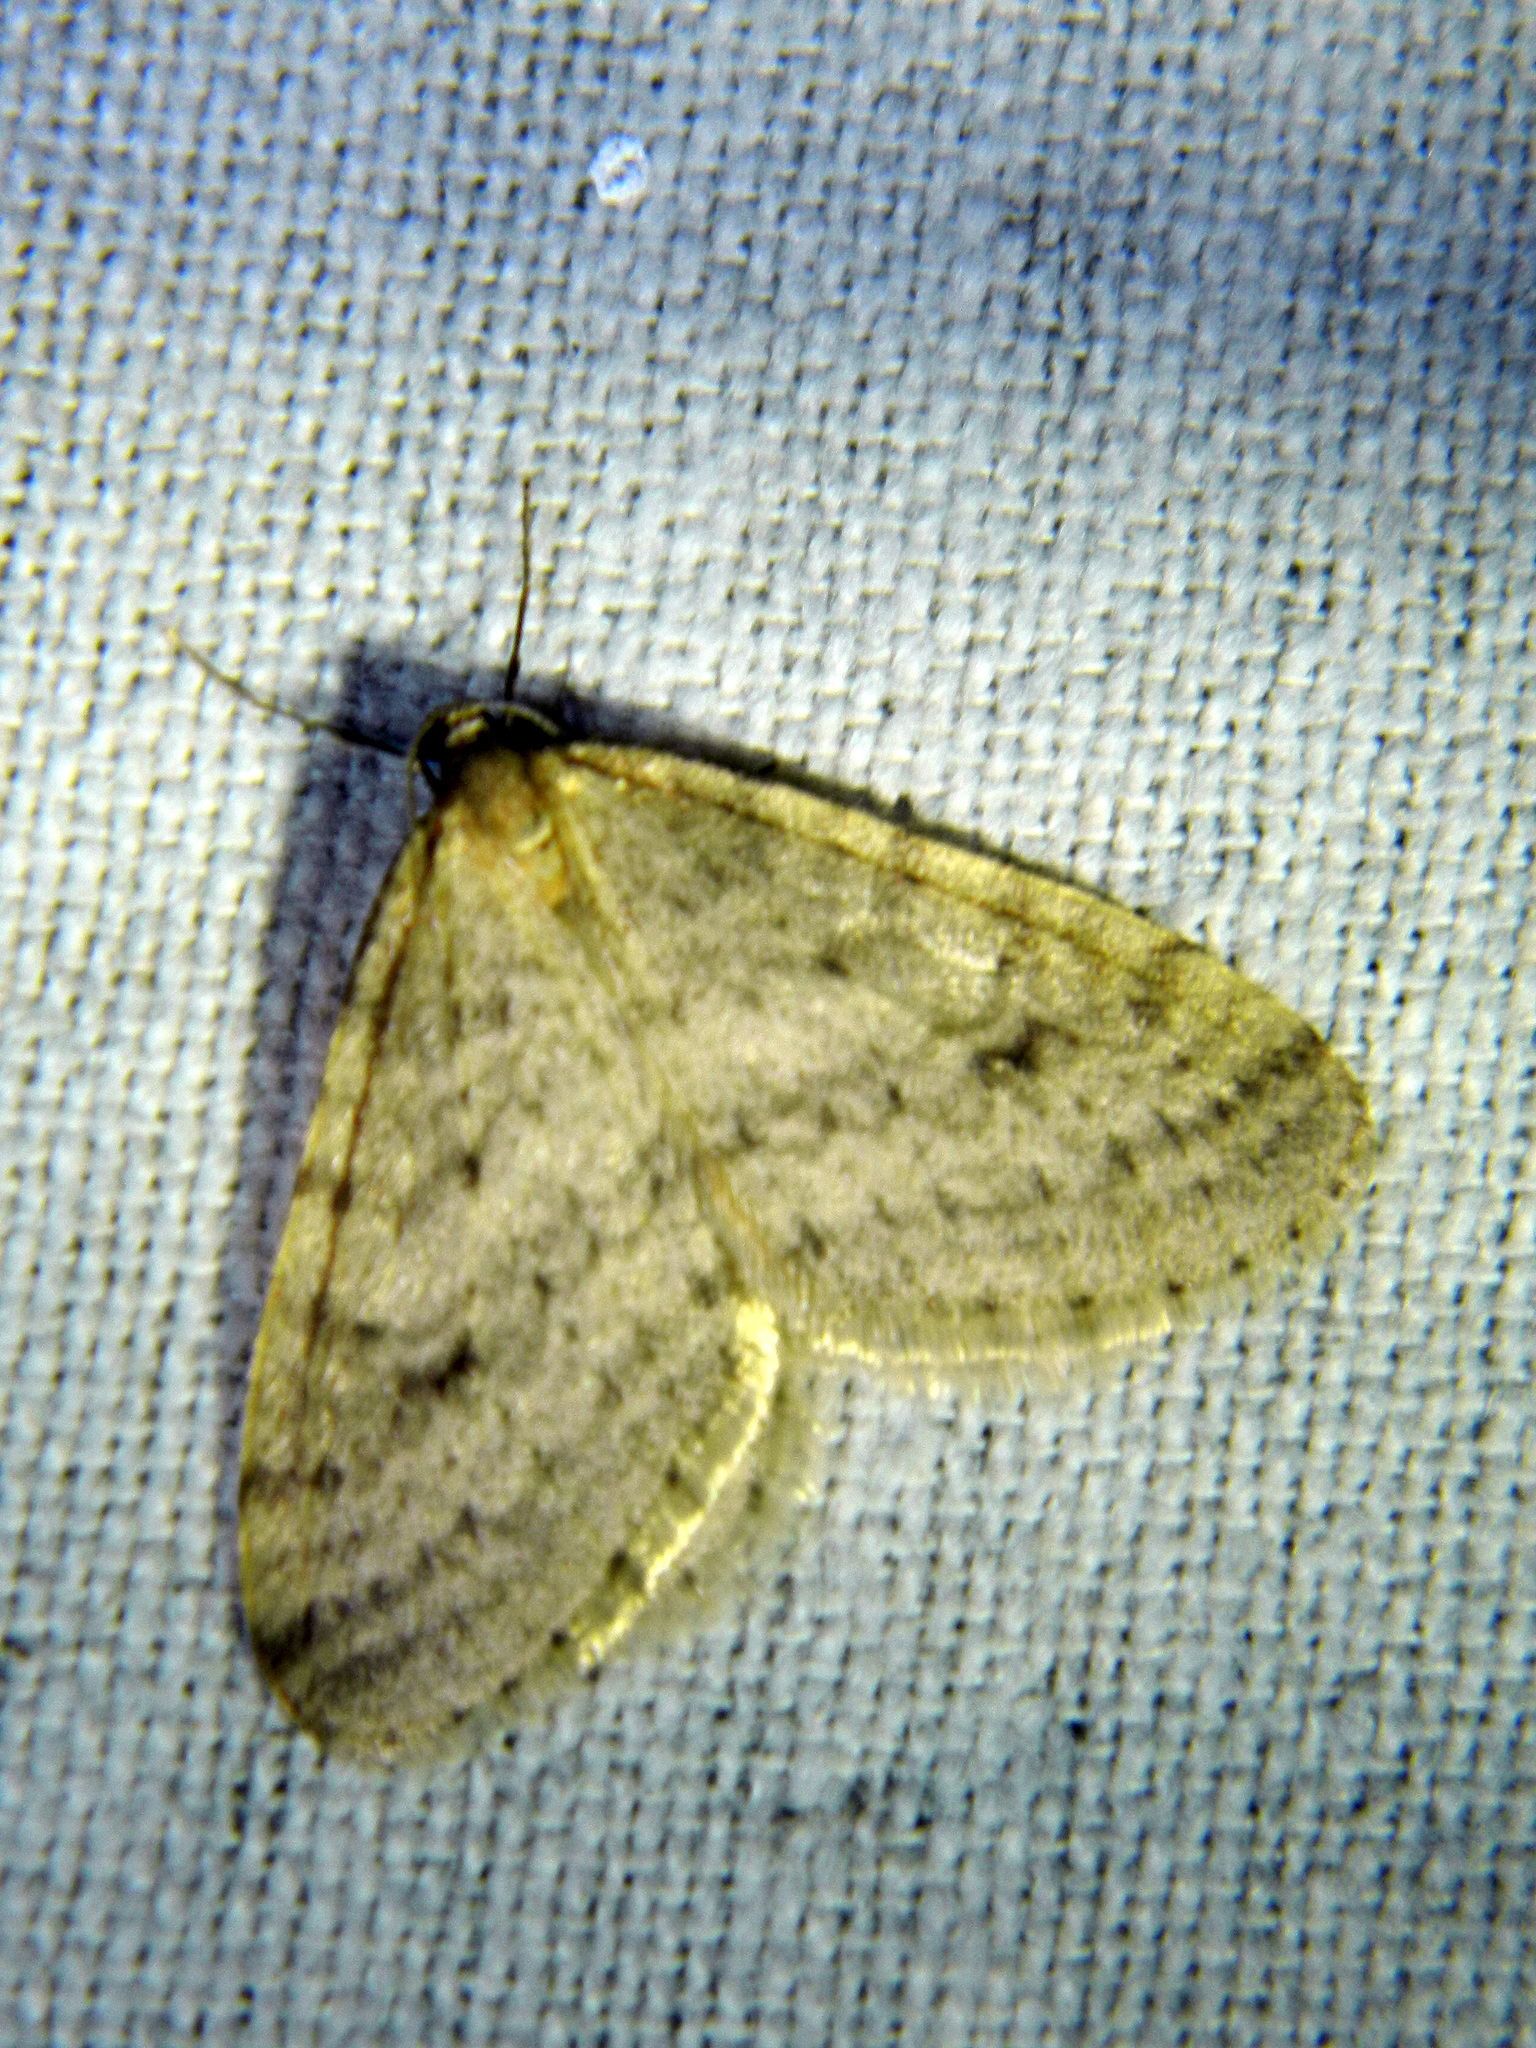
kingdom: Animalia
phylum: Arthropoda
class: Insecta
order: Lepidoptera
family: Geometridae
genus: Operophtera
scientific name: Operophtera bruceata
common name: Bruce spanworm
